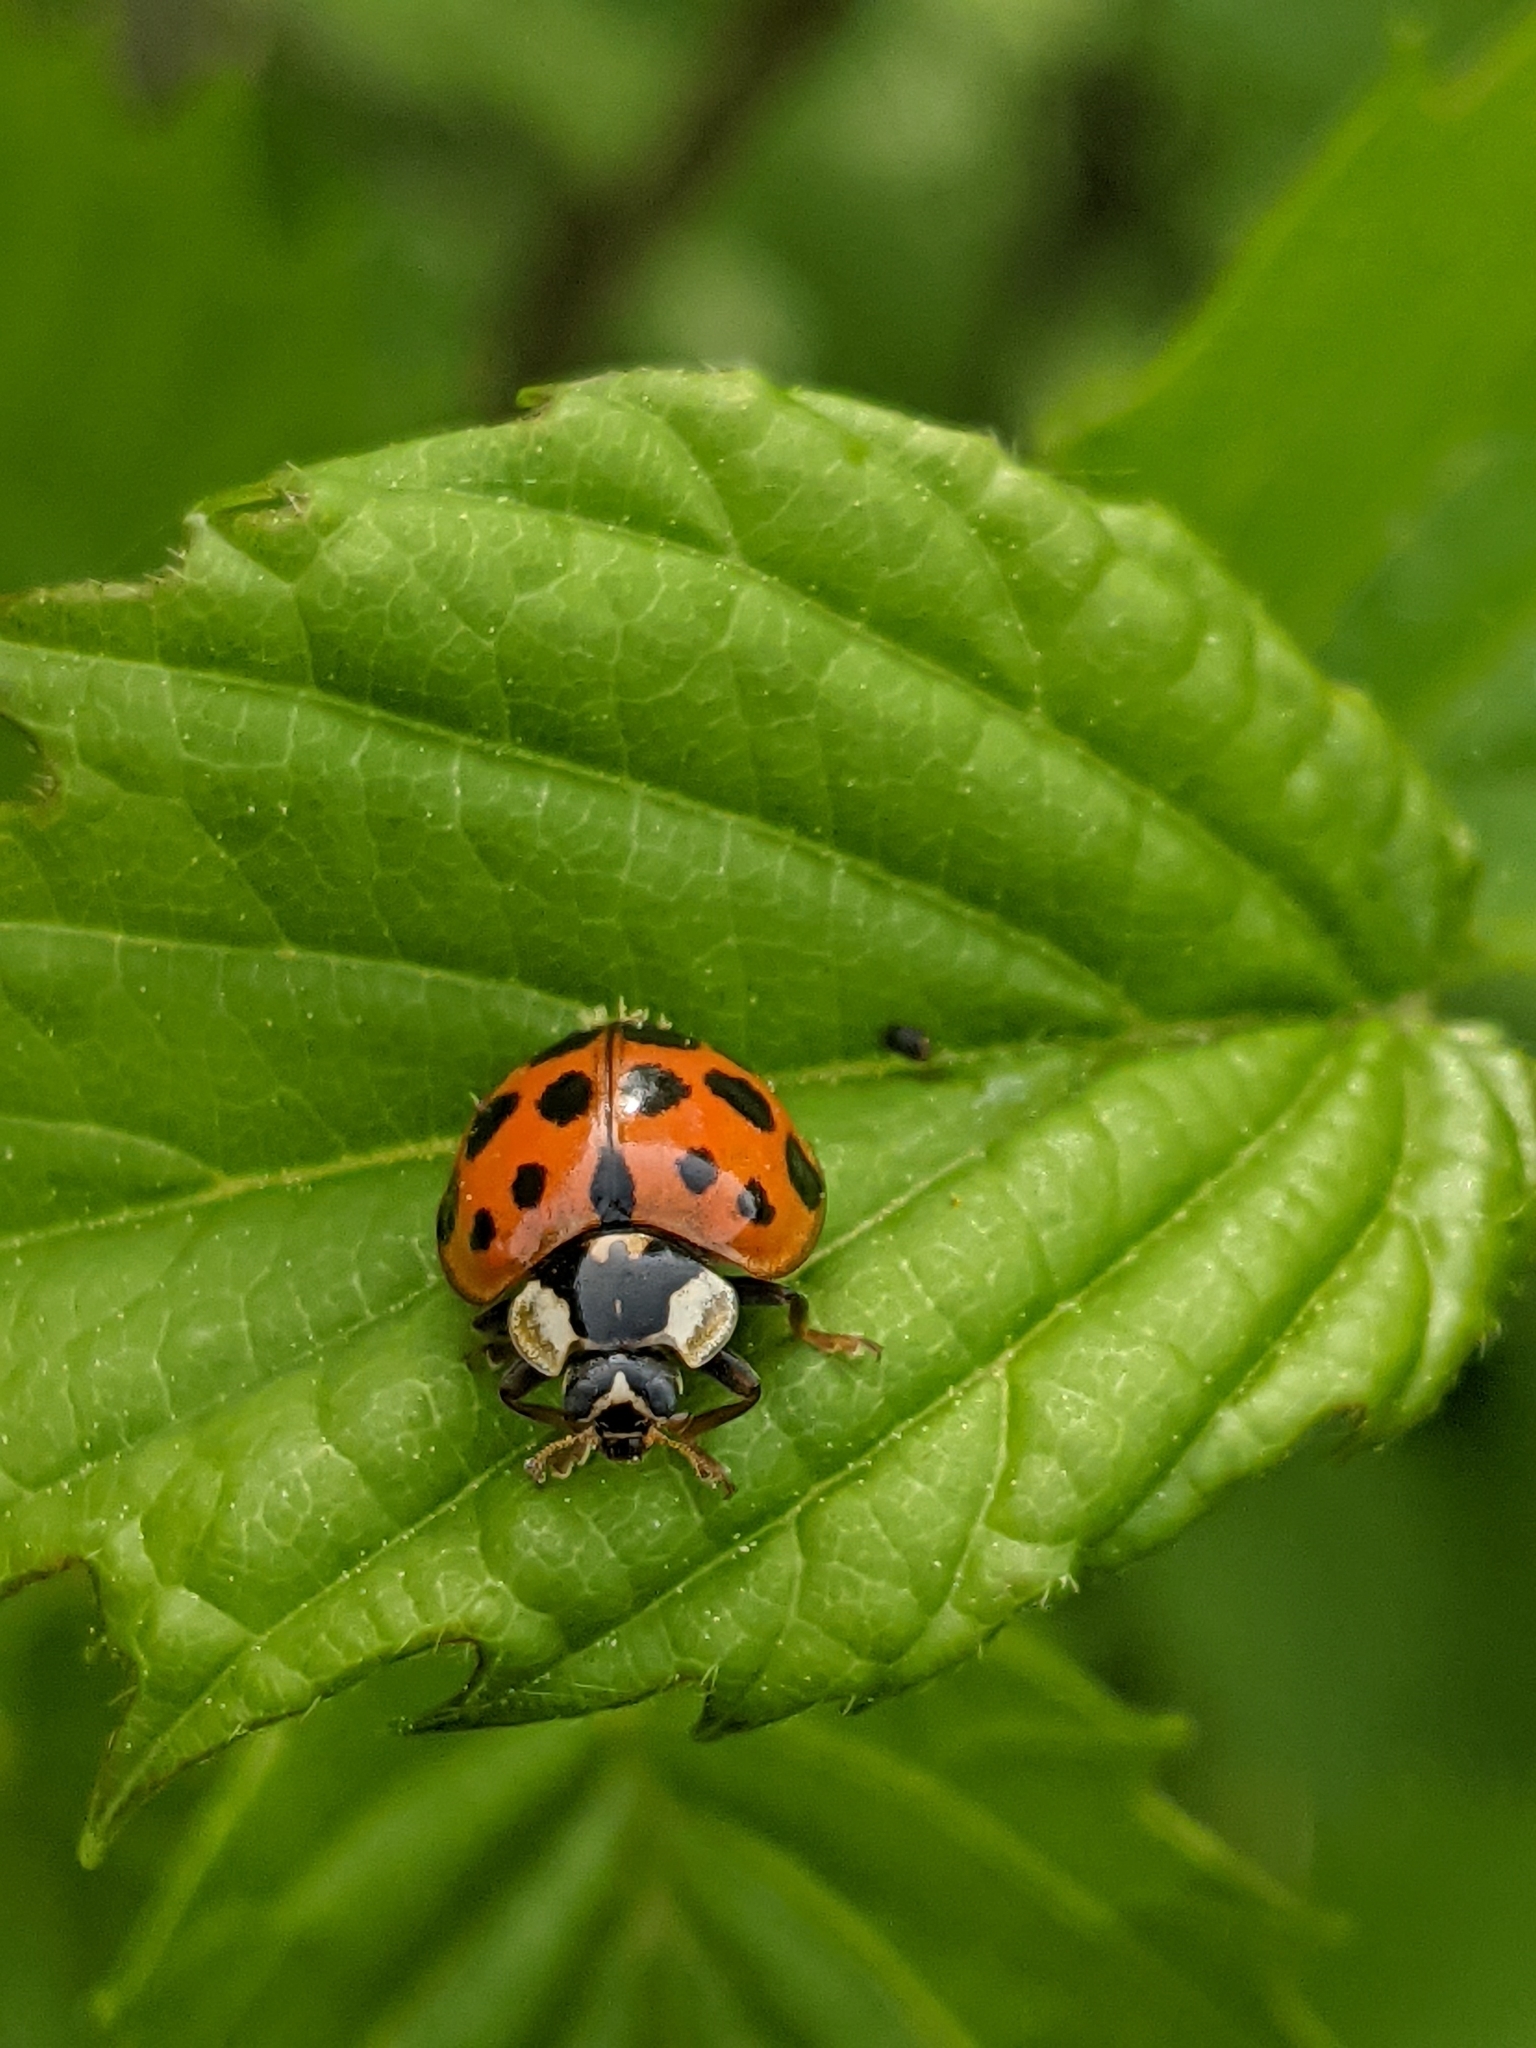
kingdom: Animalia
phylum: Arthropoda
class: Insecta
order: Coleoptera
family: Coccinellidae
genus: Harmonia
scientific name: Harmonia axyridis
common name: Harlequin ladybird
